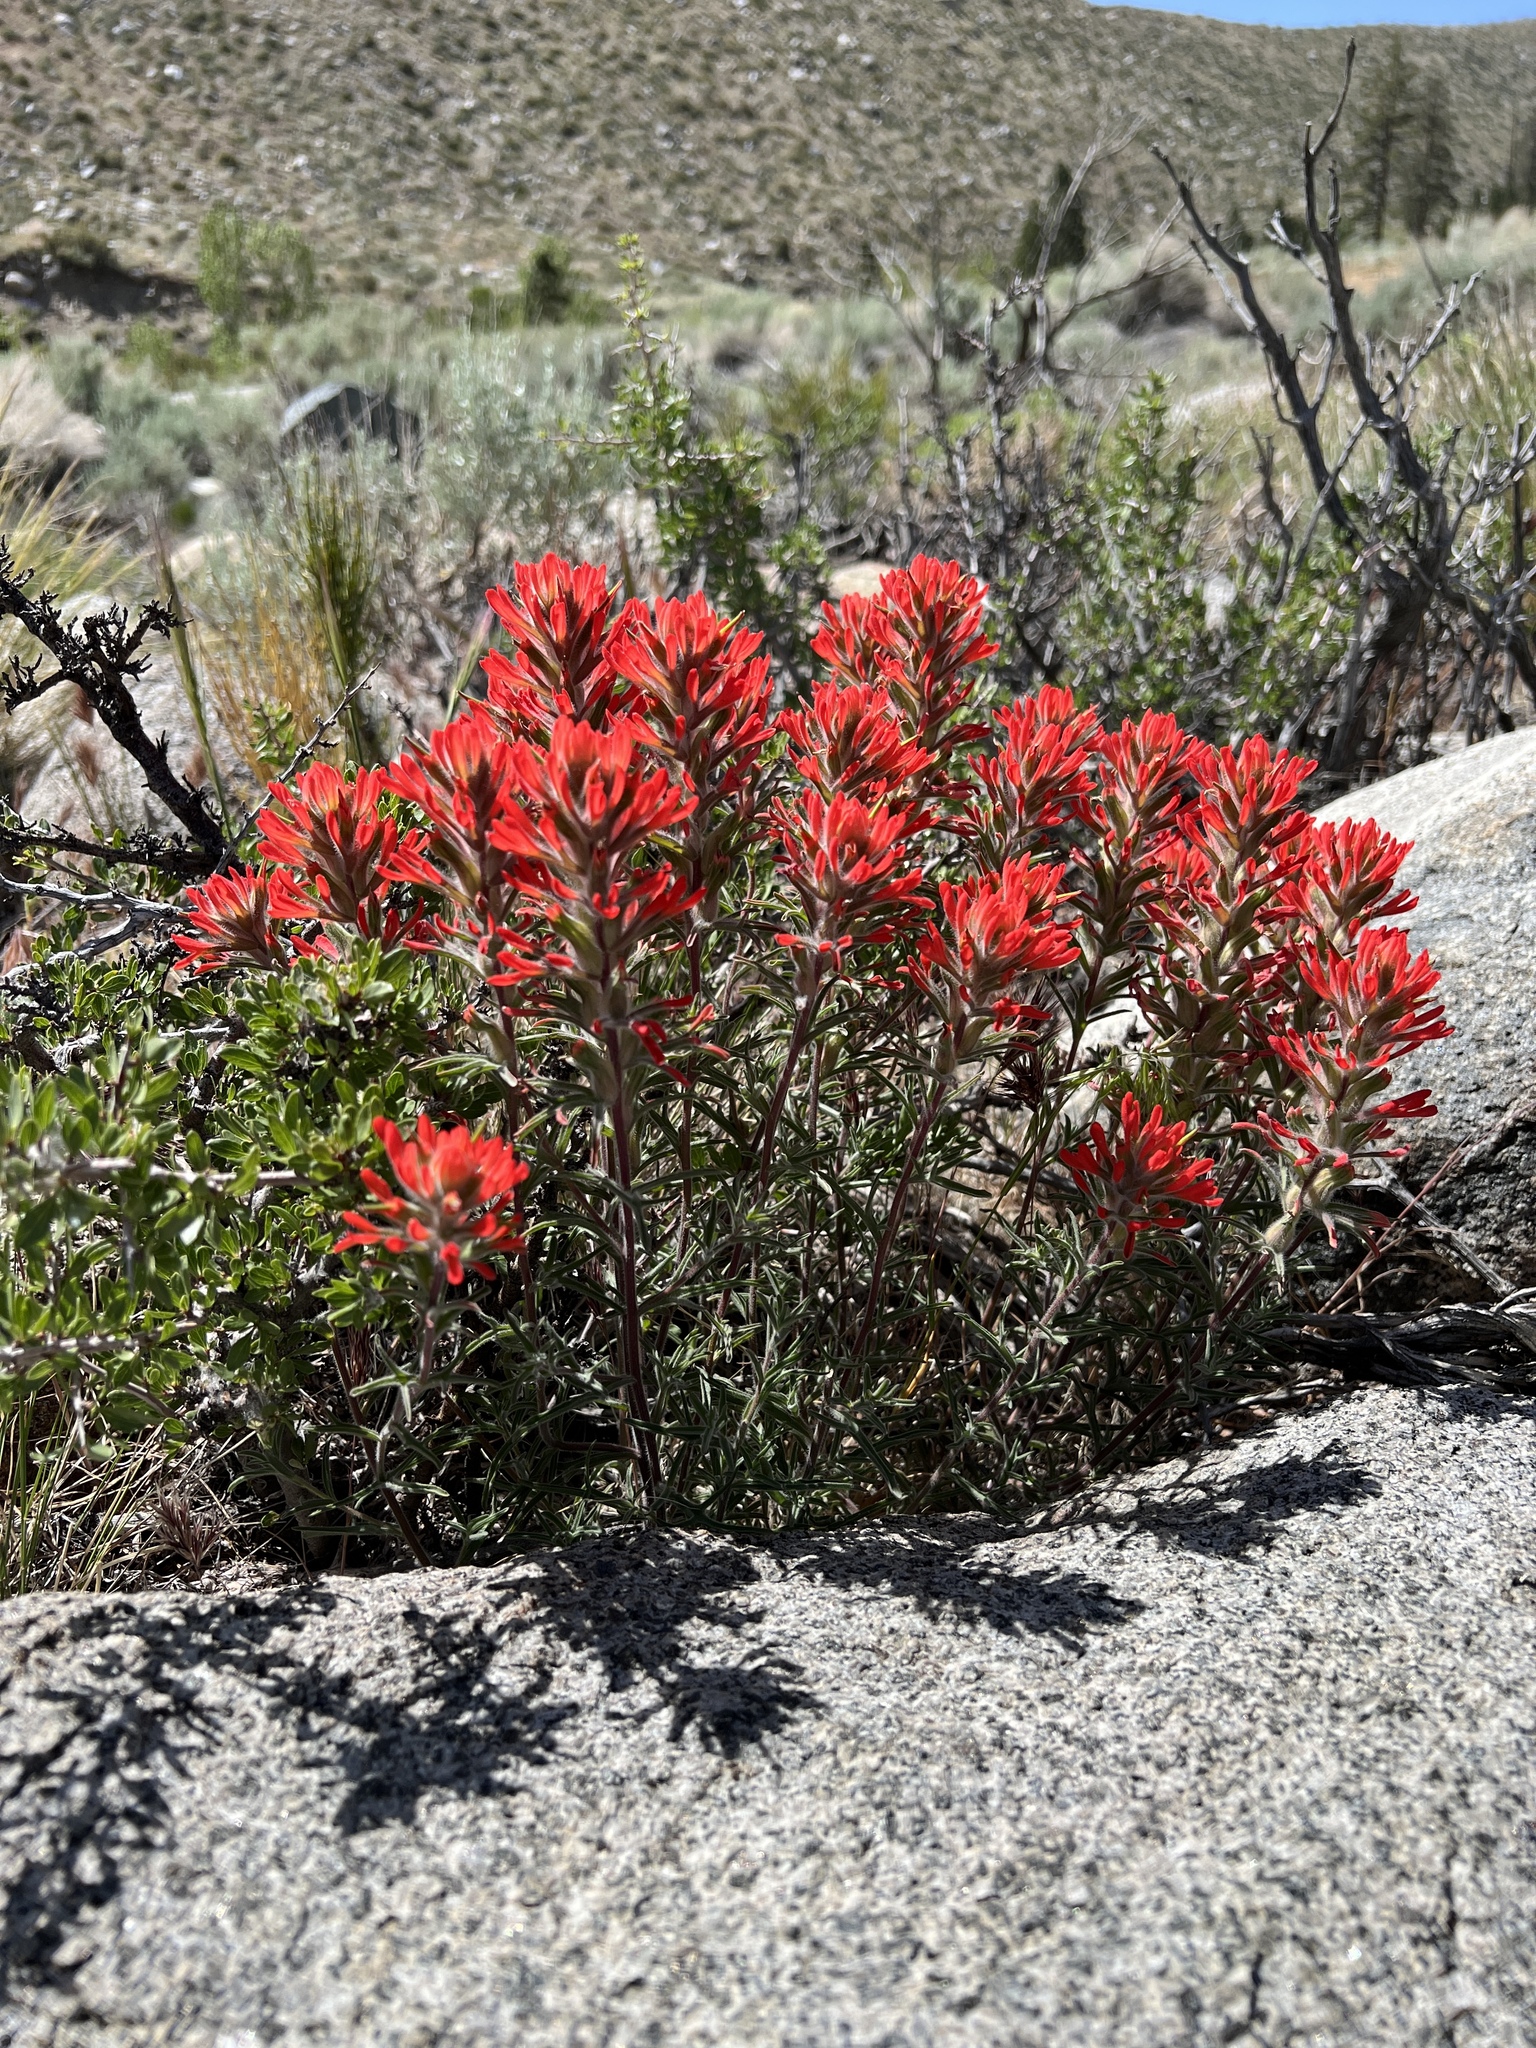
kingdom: Plantae
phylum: Tracheophyta
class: Magnoliopsida
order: Lamiales
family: Orobanchaceae
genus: Castilleja
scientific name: Castilleja chromosa
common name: Desert paintbrush
